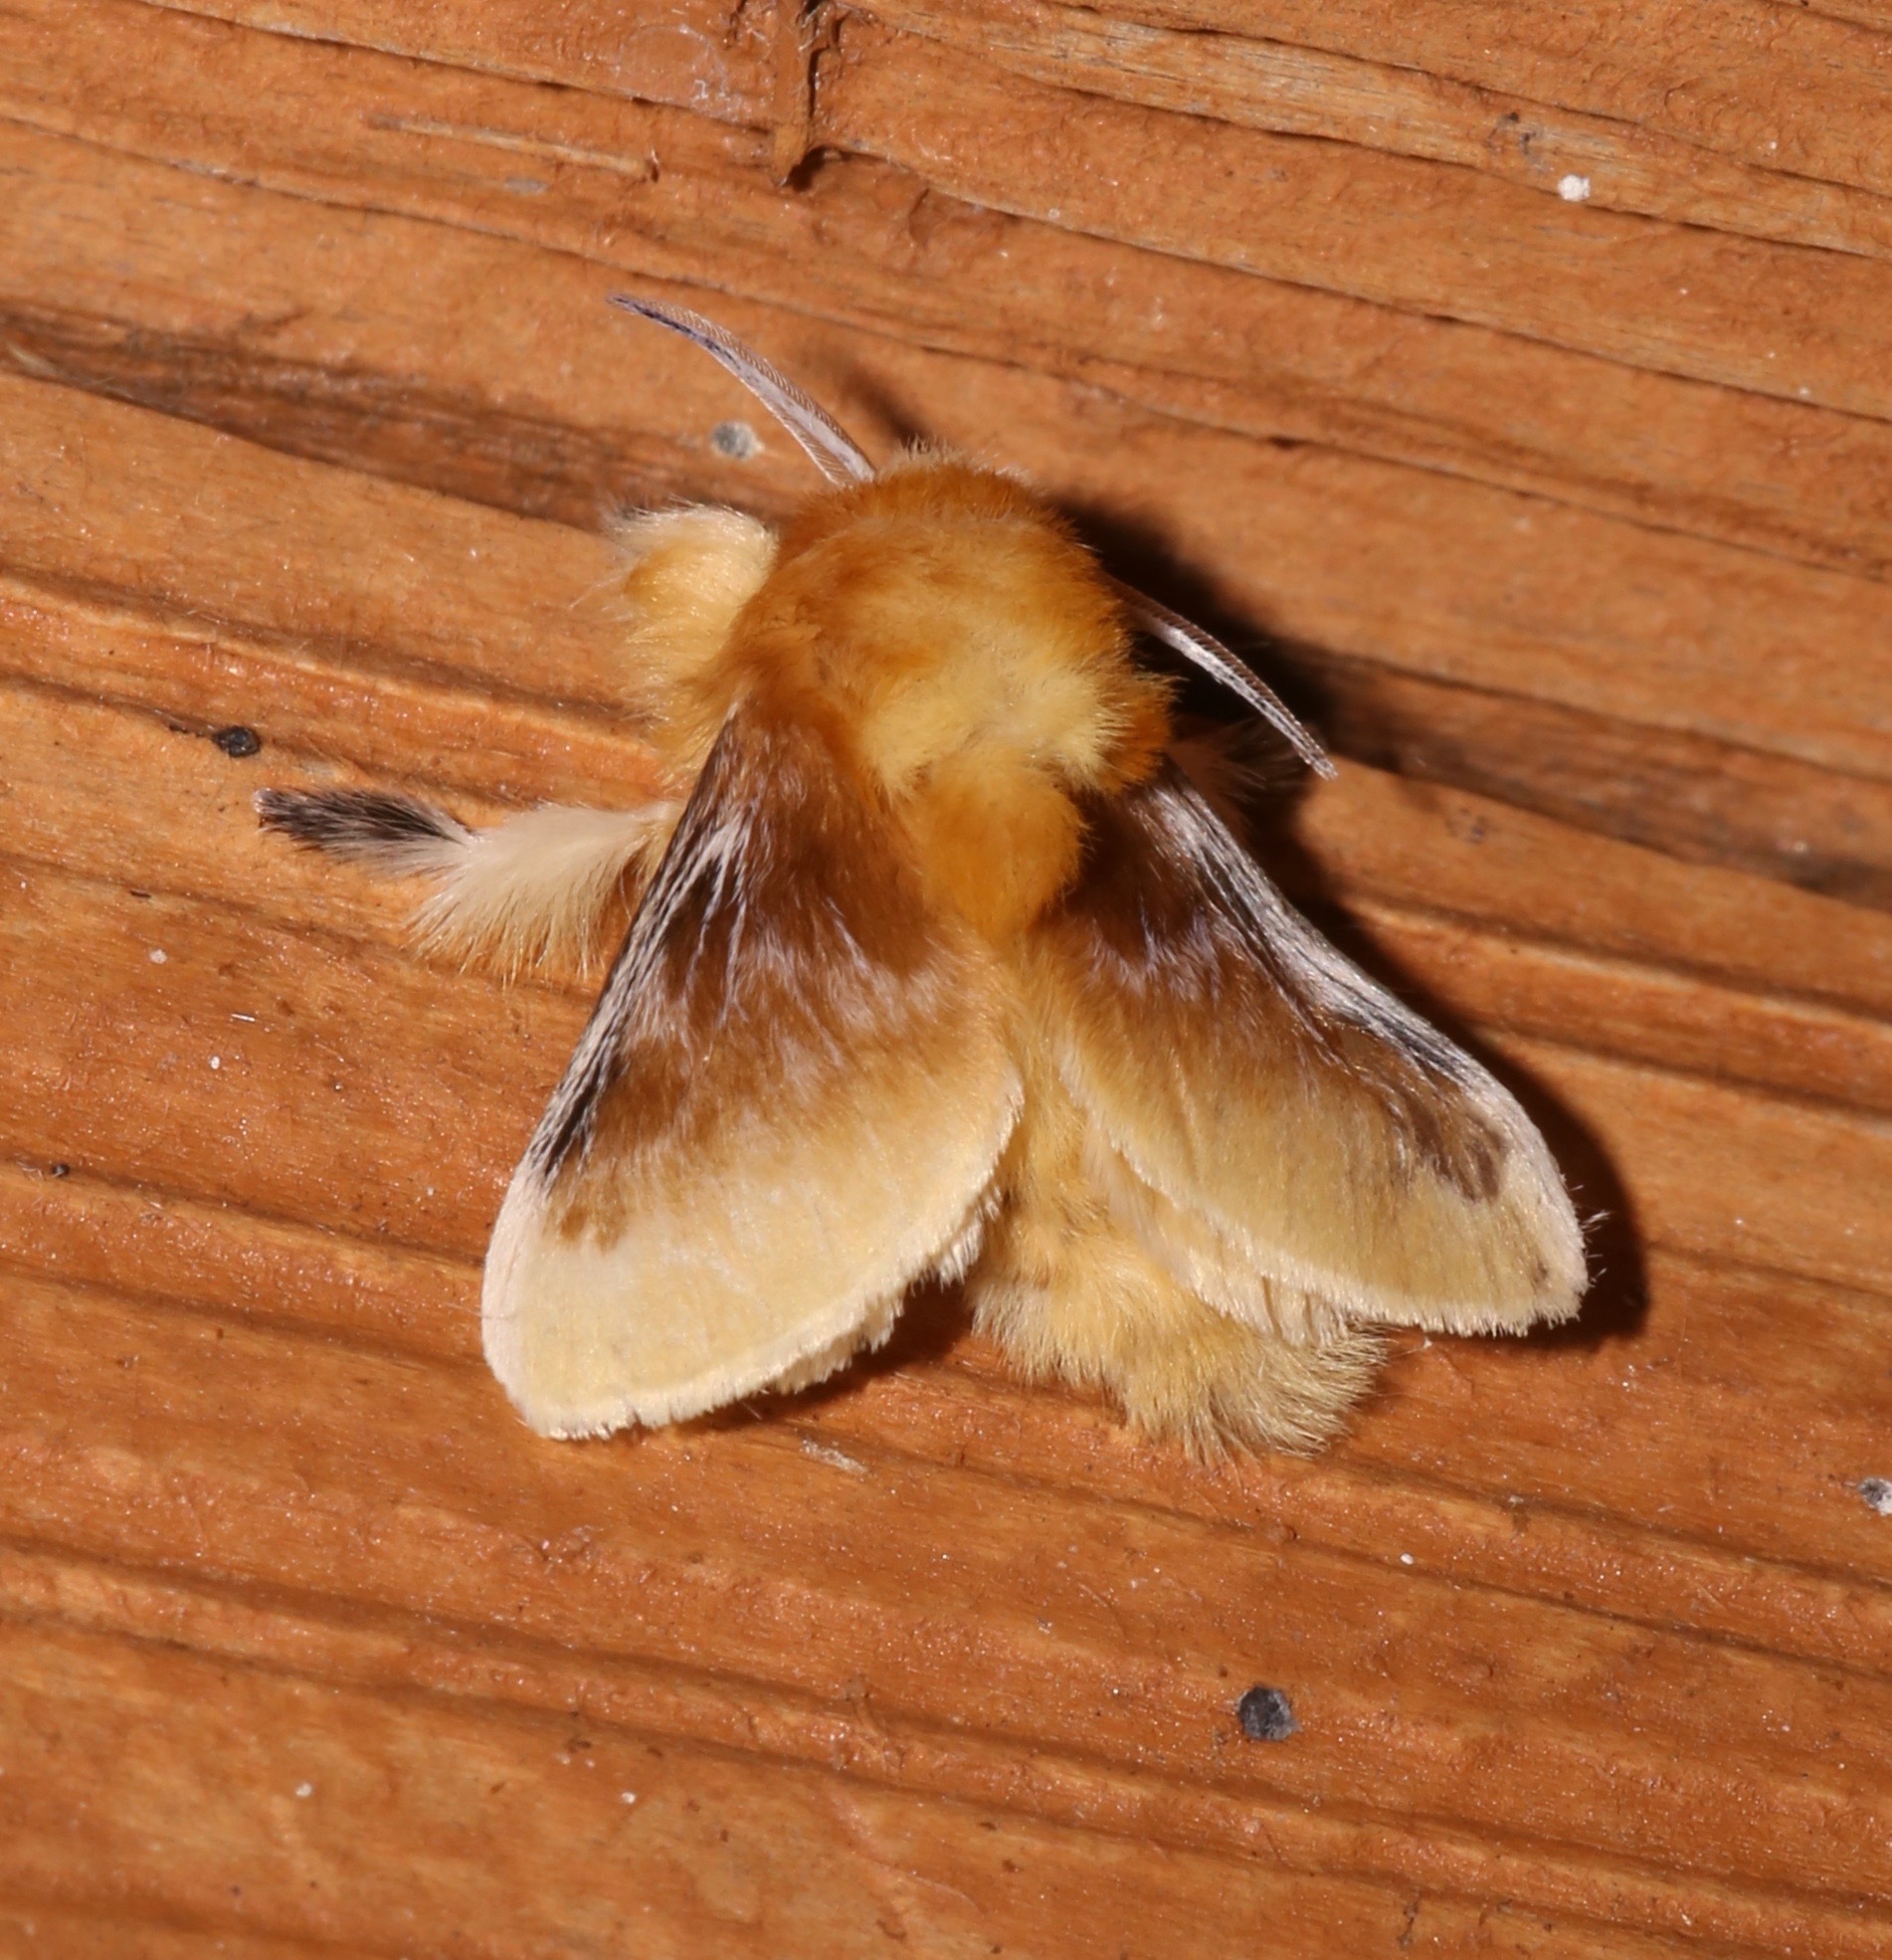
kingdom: Animalia
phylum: Arthropoda
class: Insecta
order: Lepidoptera
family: Megalopygidae
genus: Megalopyge
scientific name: Megalopyge opercularis
